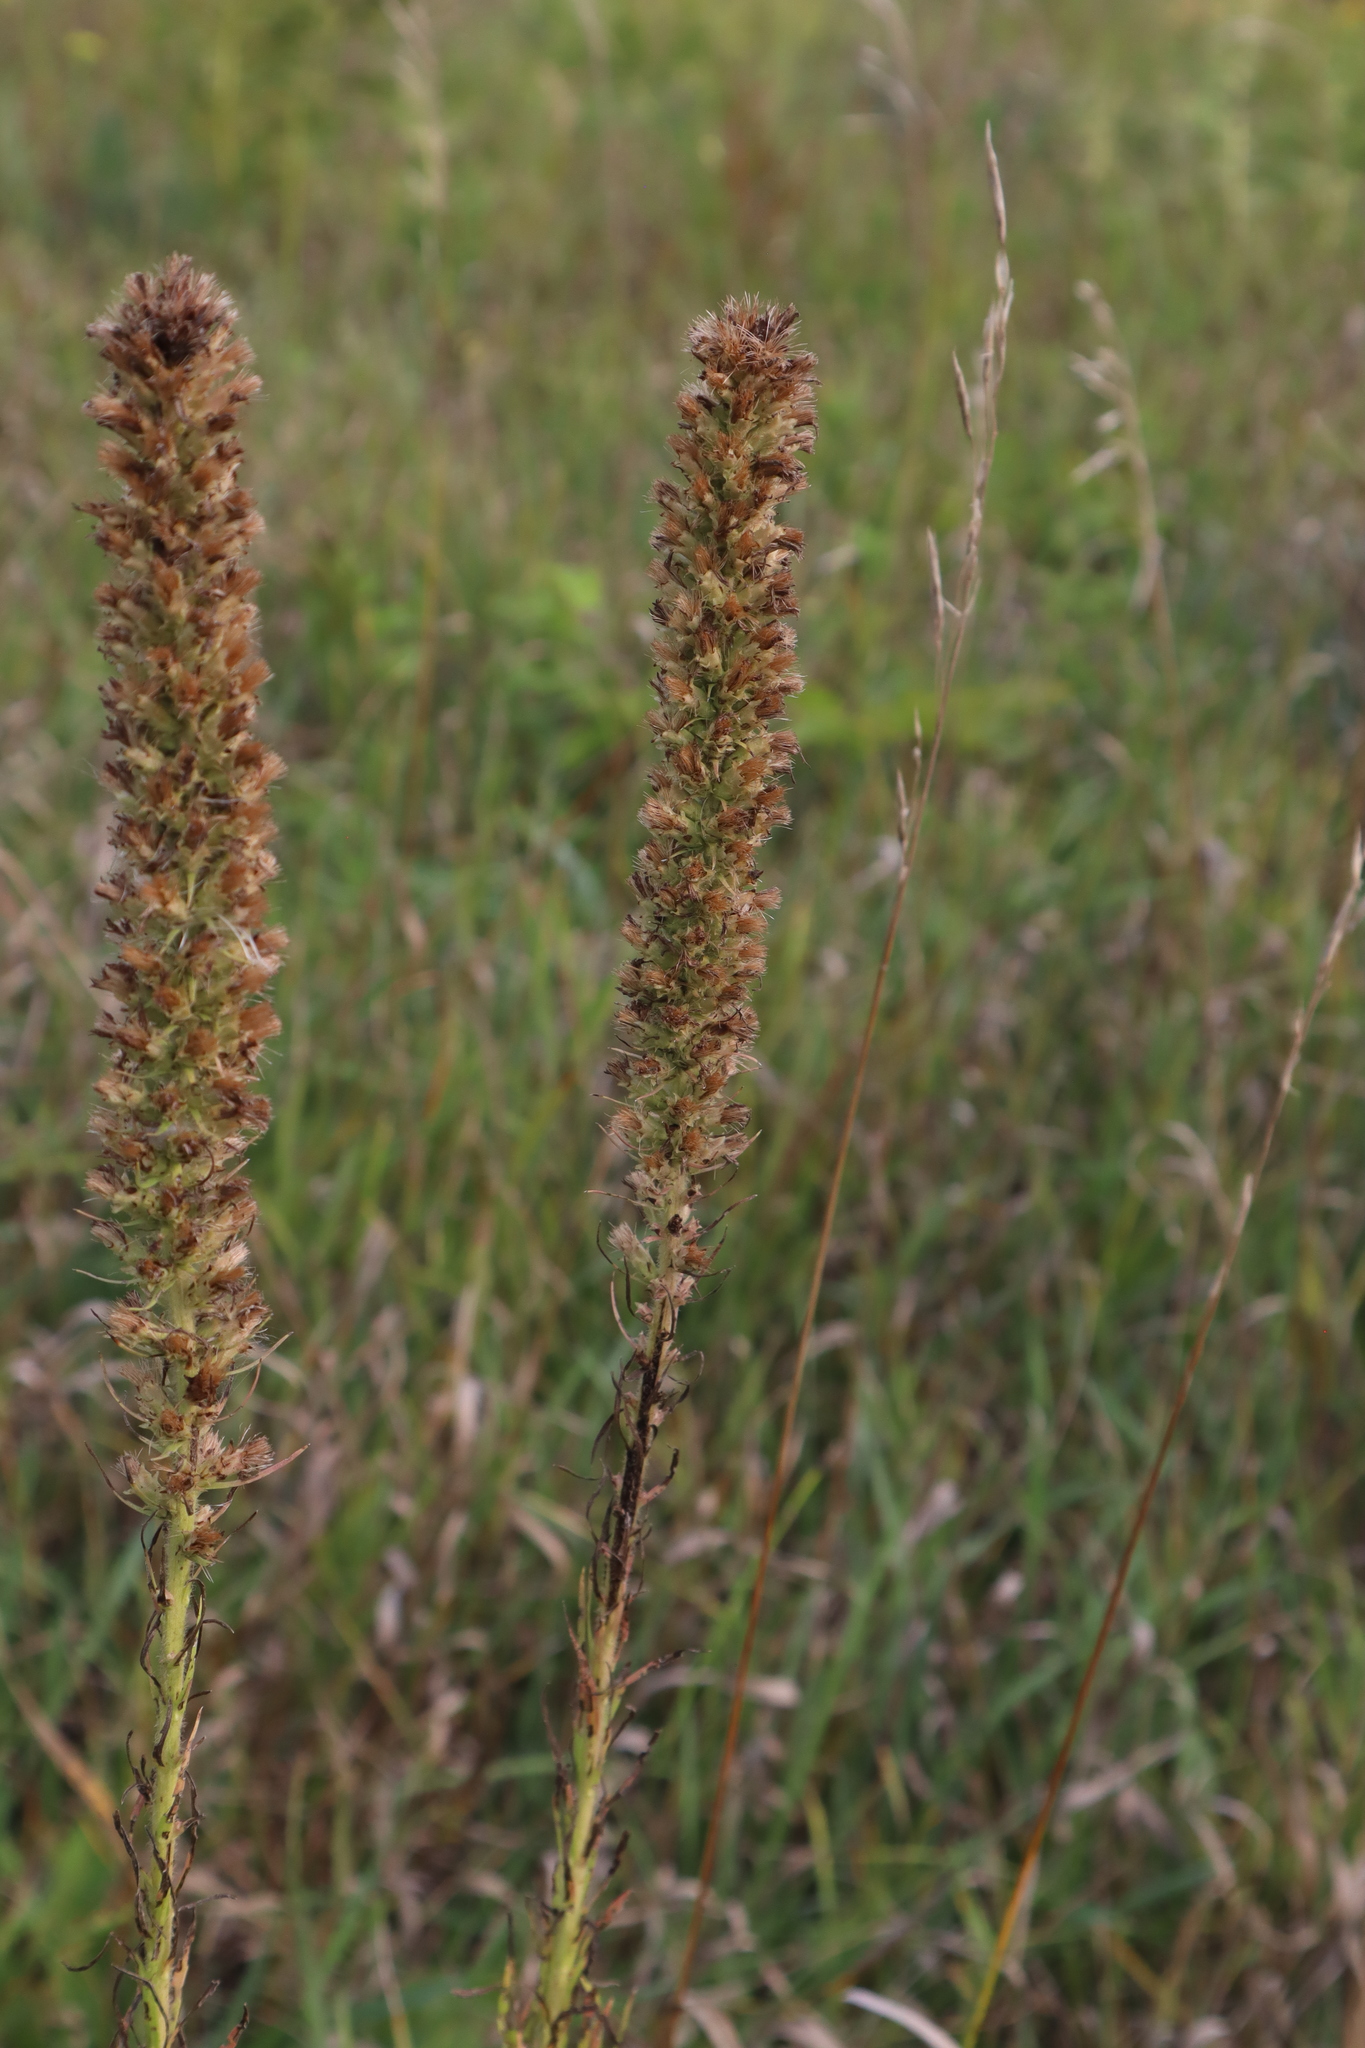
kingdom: Plantae
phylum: Tracheophyta
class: Magnoliopsida
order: Asterales
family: Asteraceae
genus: Liatris
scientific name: Liatris pycnostachya
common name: Cattail gayfeather
